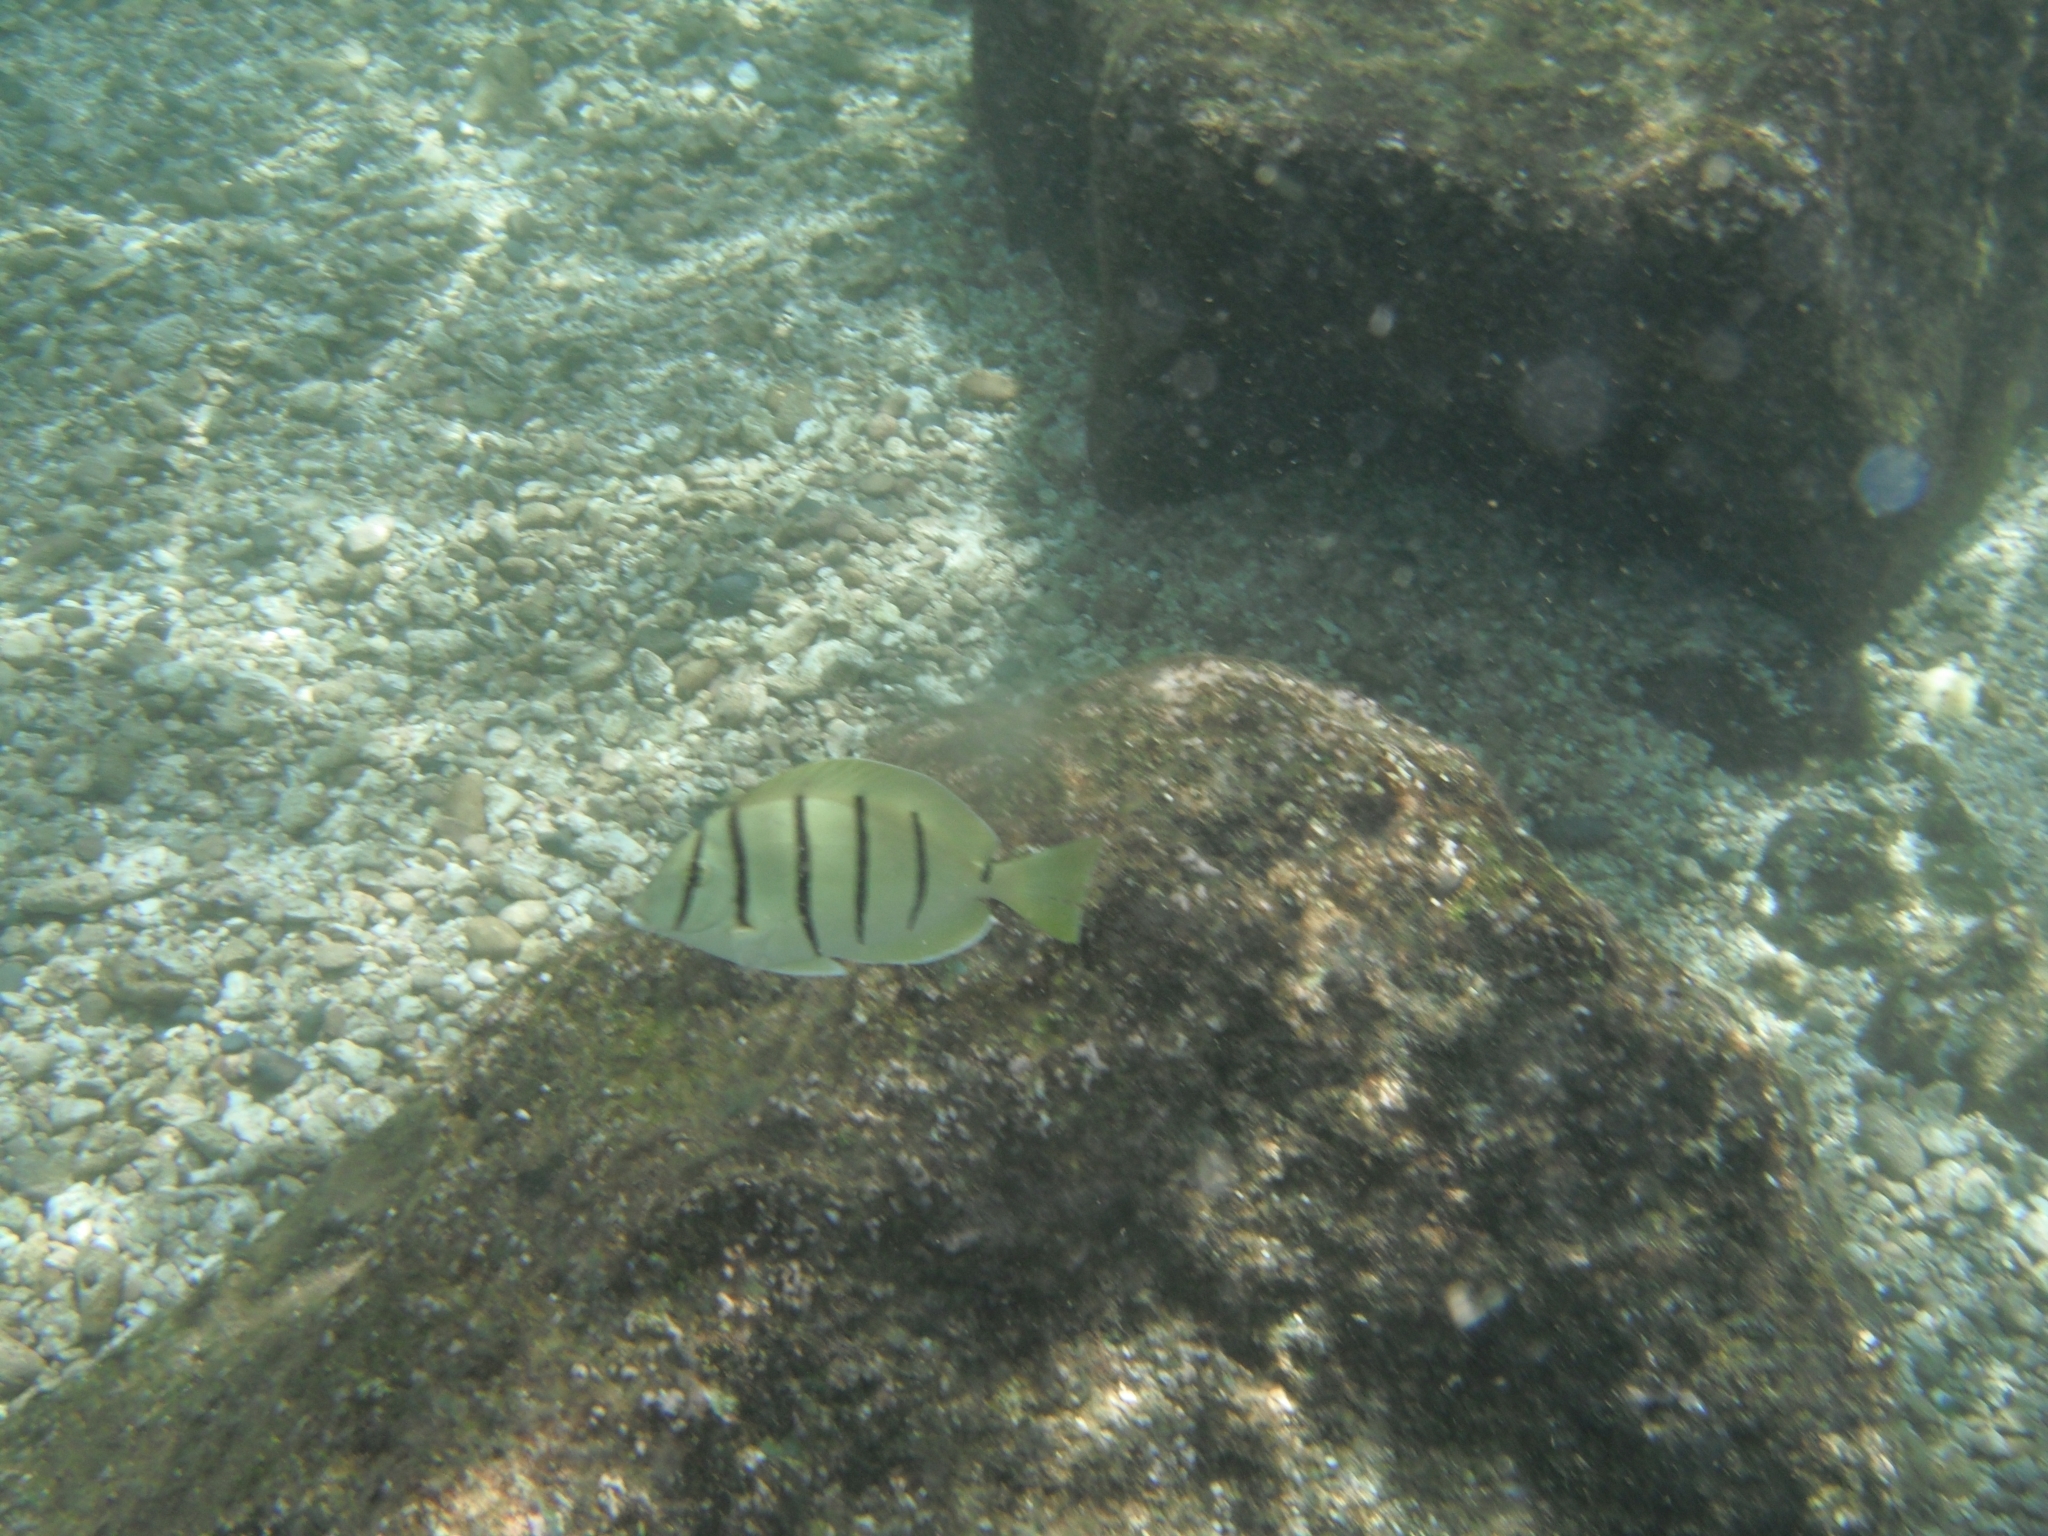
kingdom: Animalia
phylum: Chordata
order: Perciformes
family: Acanthuridae
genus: Acanthurus
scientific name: Acanthurus triostegus
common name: Convict surgeonfish
